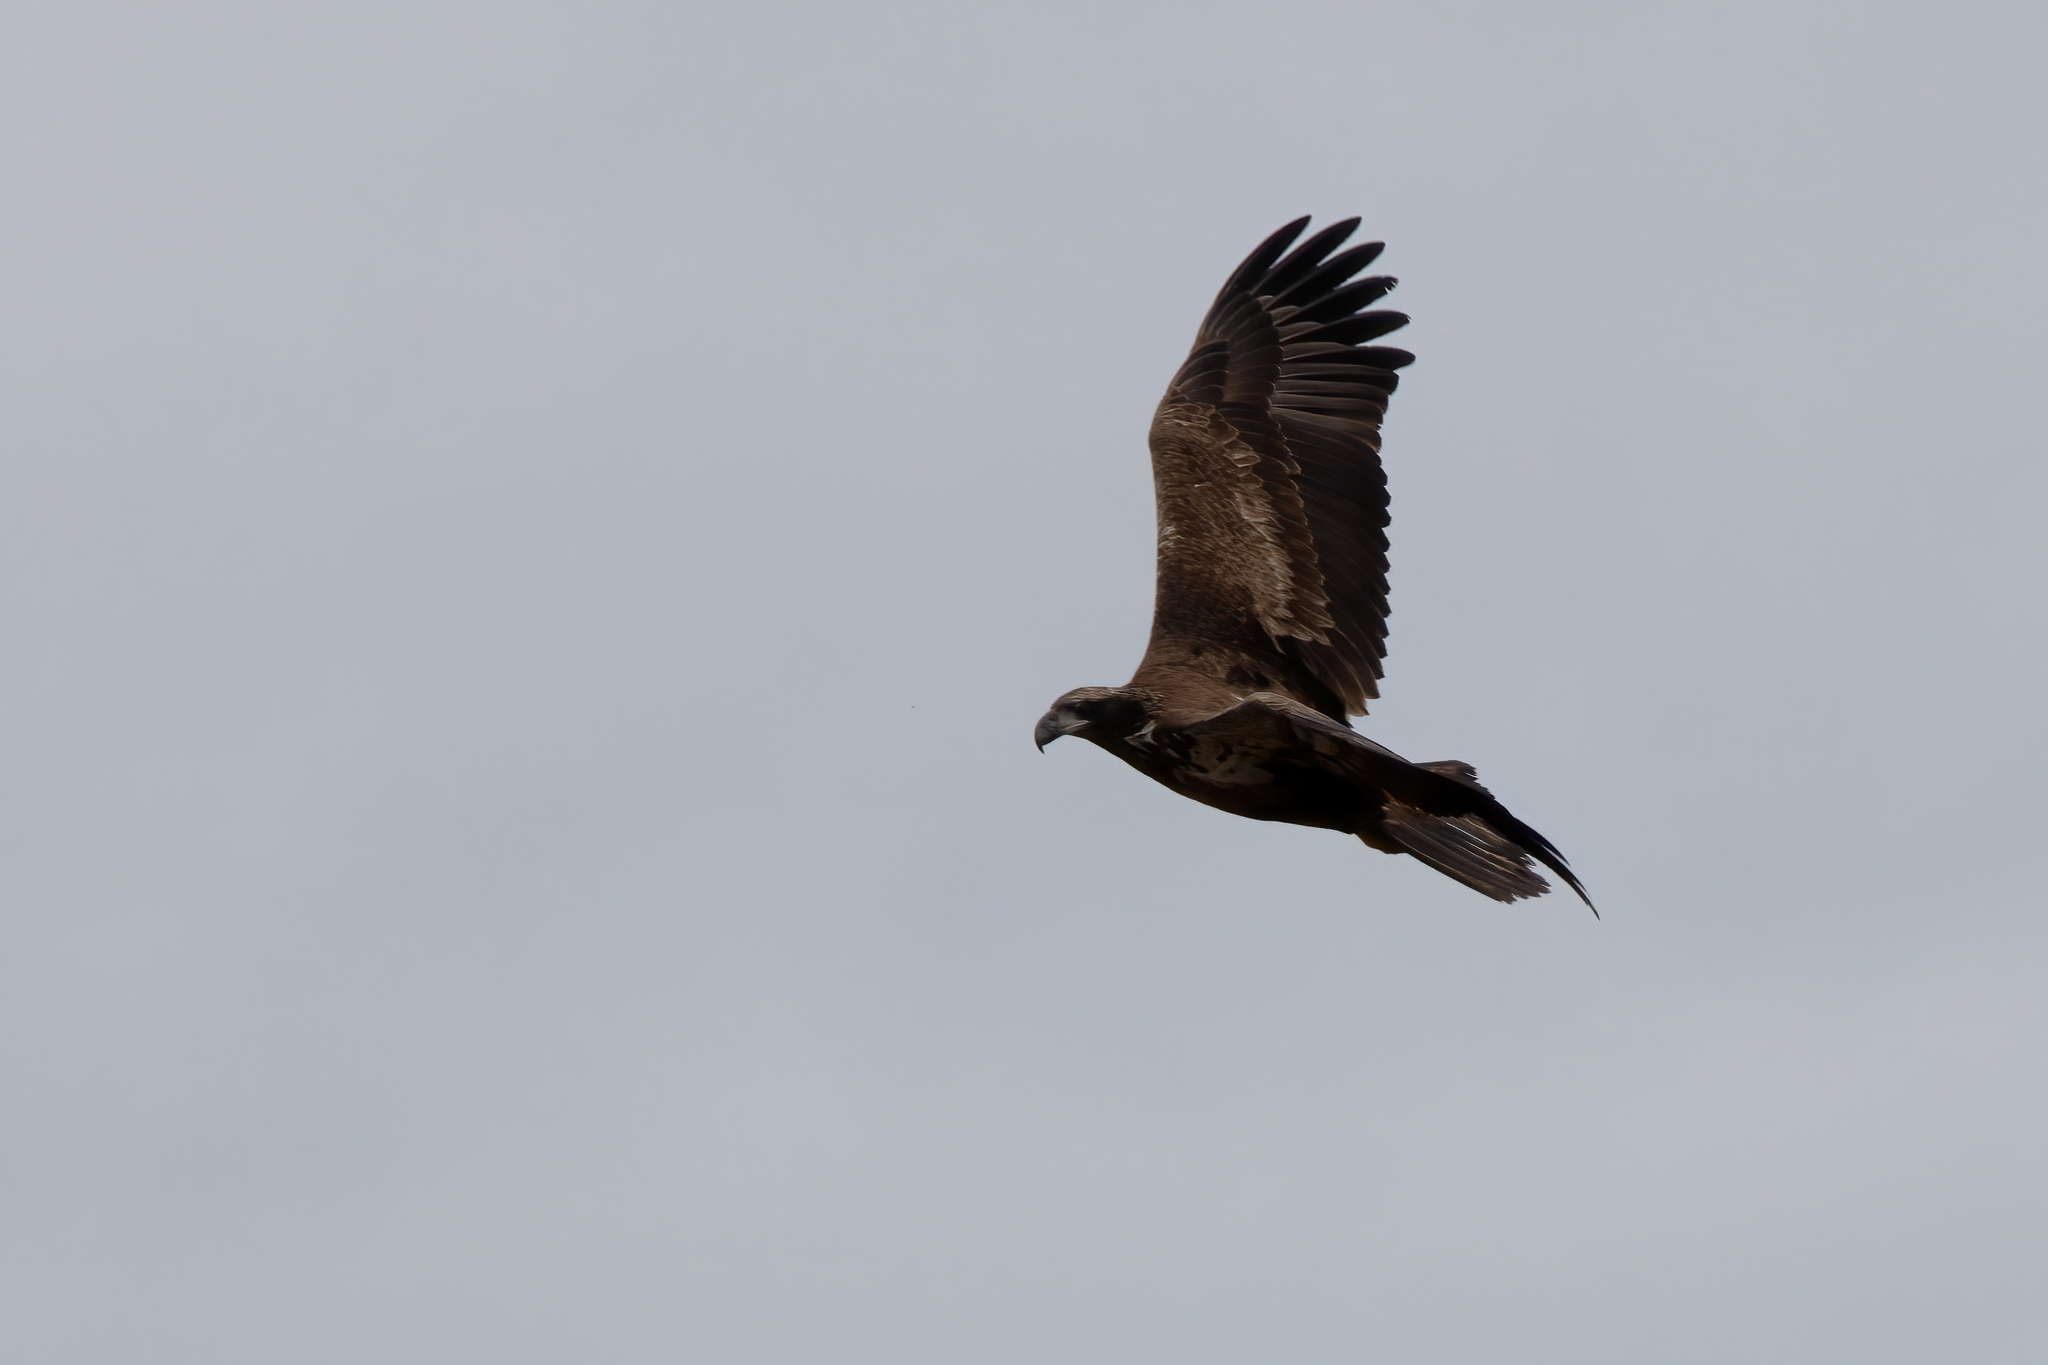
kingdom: Animalia
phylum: Chordata
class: Aves
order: Accipitriformes
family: Accipitridae
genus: Haliaeetus
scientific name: Haliaeetus leucocephalus
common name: Bald eagle
